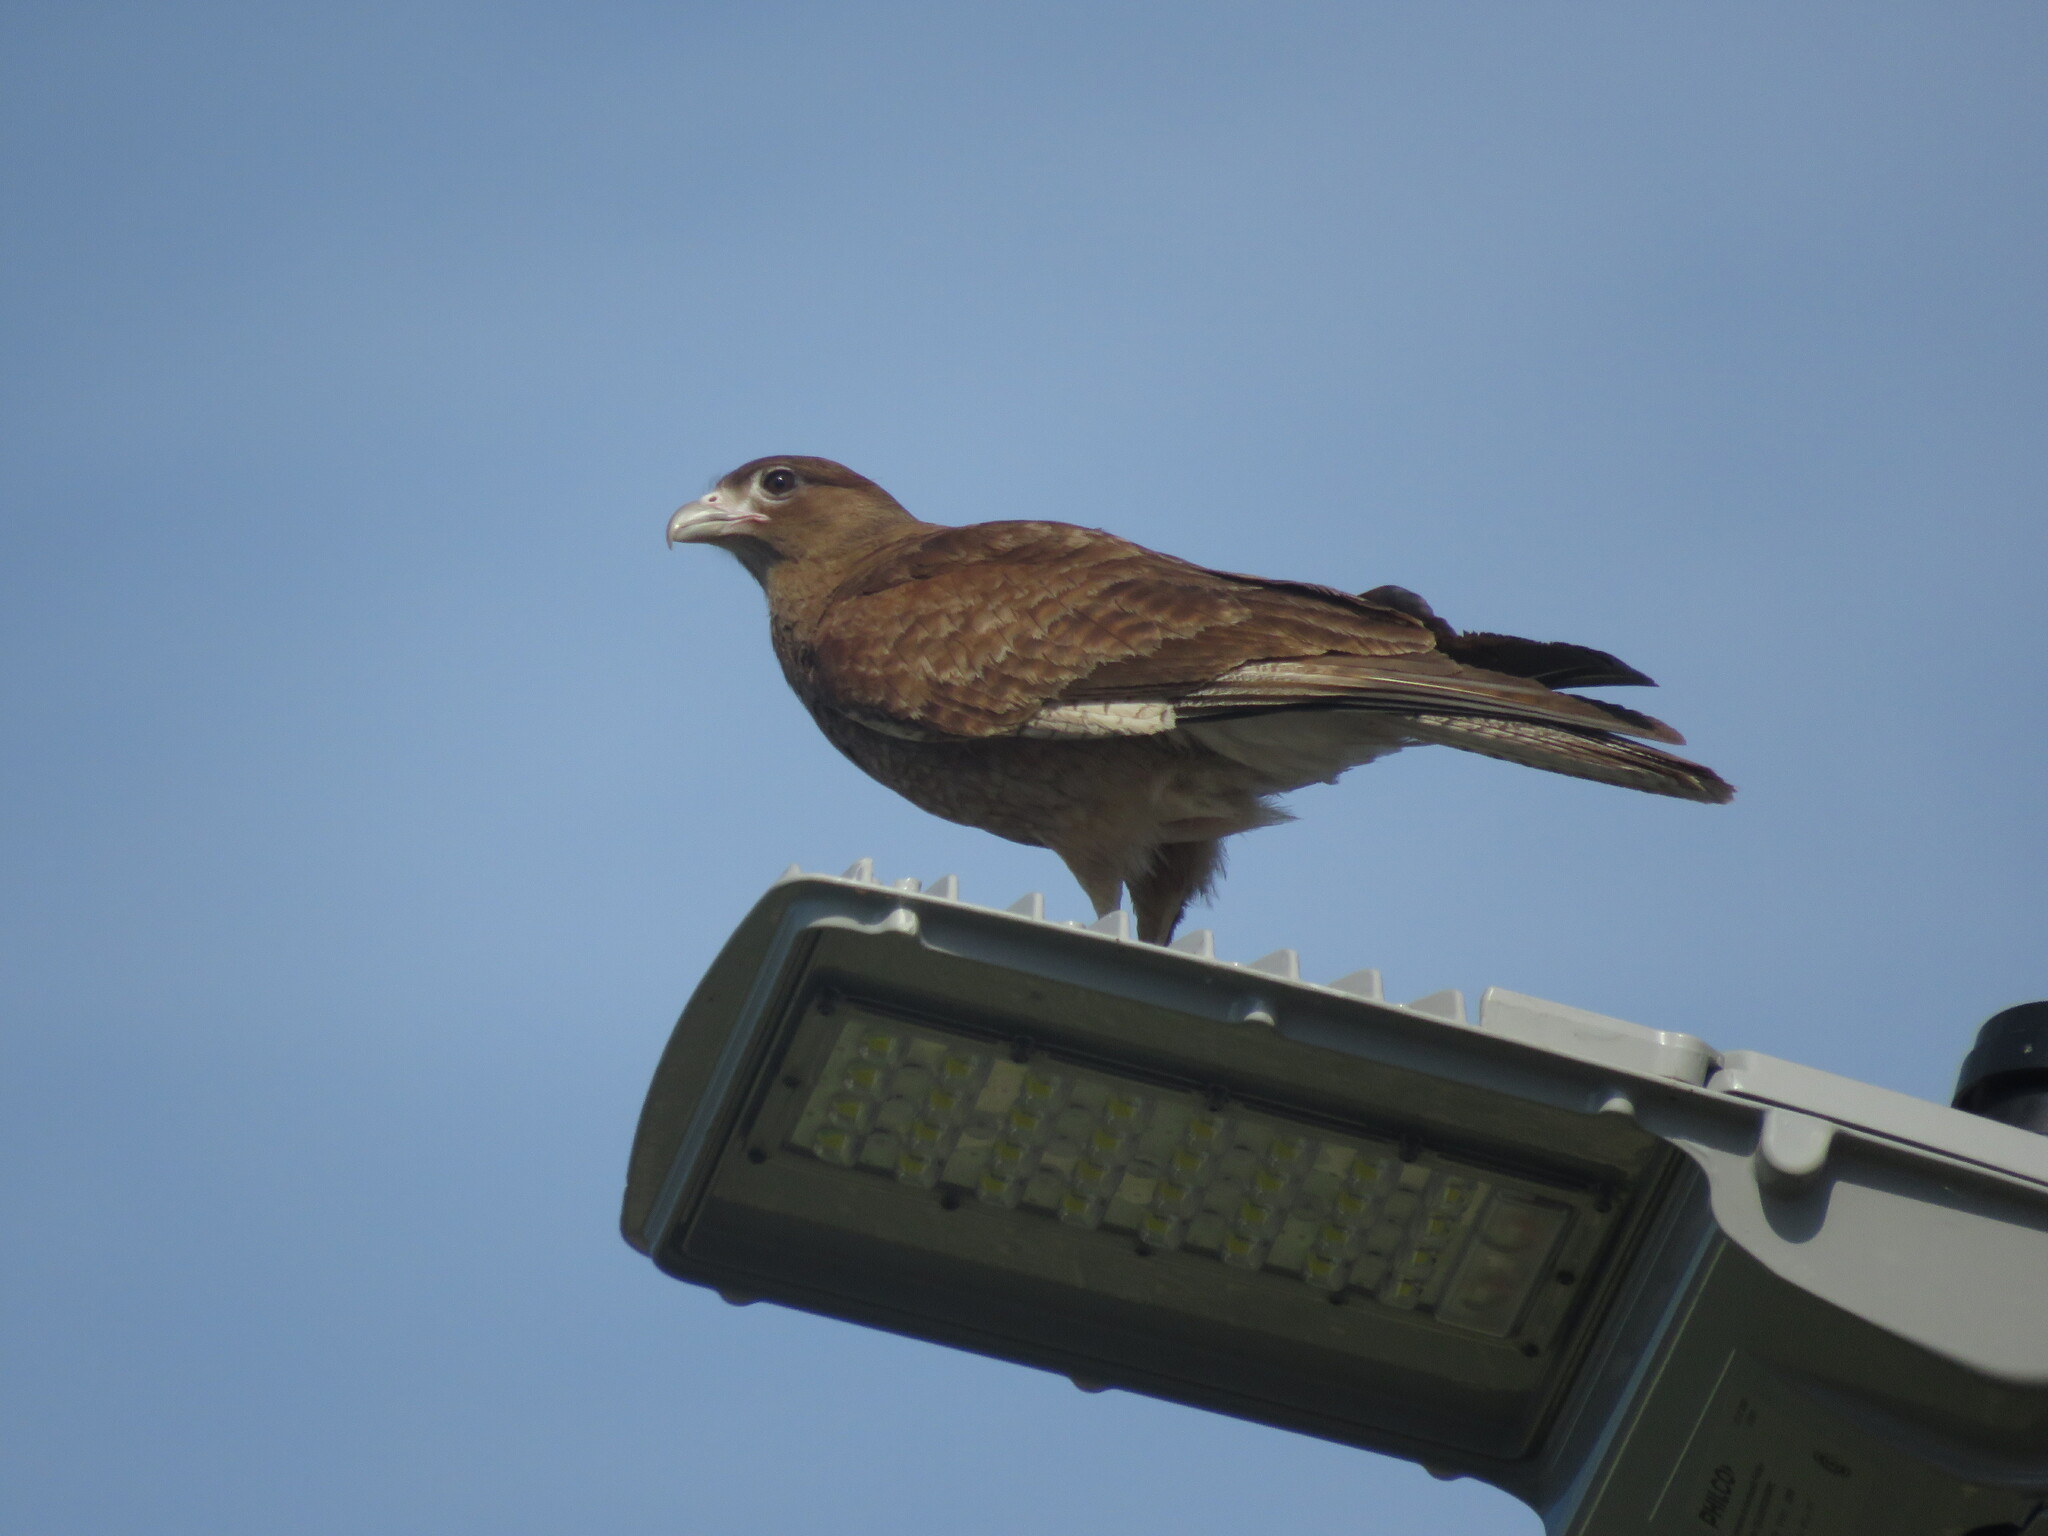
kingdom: Animalia
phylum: Chordata
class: Aves
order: Falconiformes
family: Falconidae
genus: Daptrius
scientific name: Daptrius
